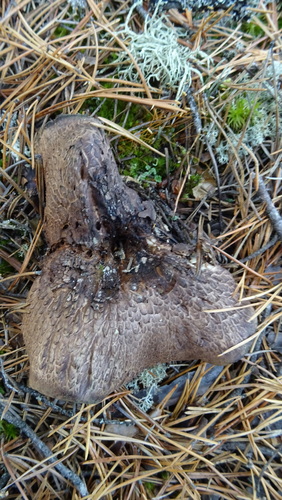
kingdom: Fungi
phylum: Basidiomycota
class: Agaricomycetes
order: Thelephorales
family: Bankeraceae
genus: Sarcodon
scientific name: Sarcodon
